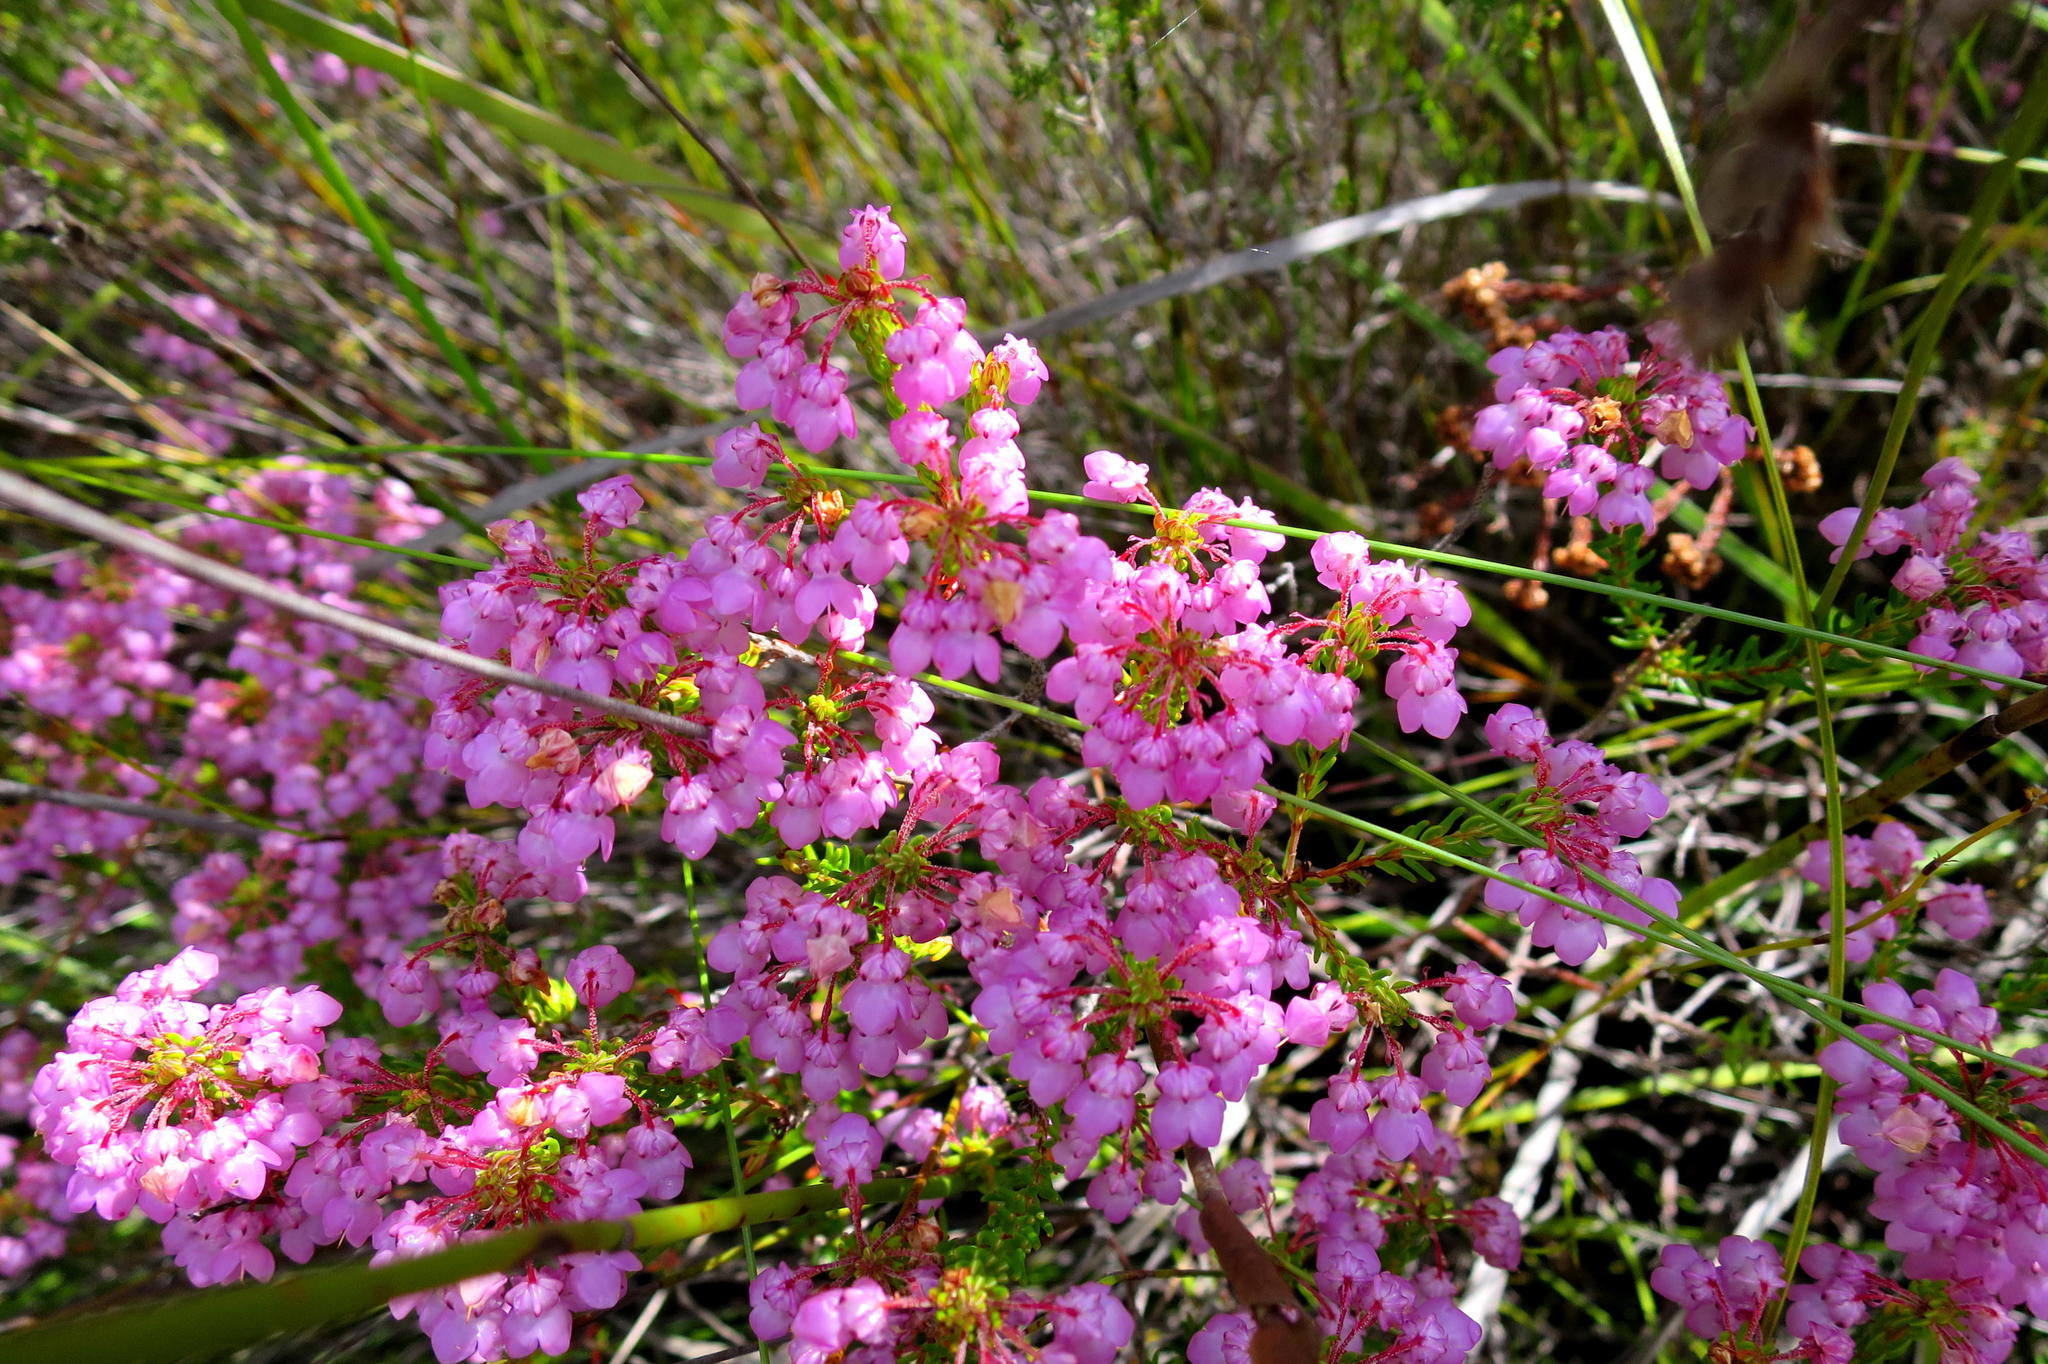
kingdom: Plantae
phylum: Tracheophyta
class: Magnoliopsida
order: Ericales
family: Ericaceae
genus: Erica
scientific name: Erica cubica
